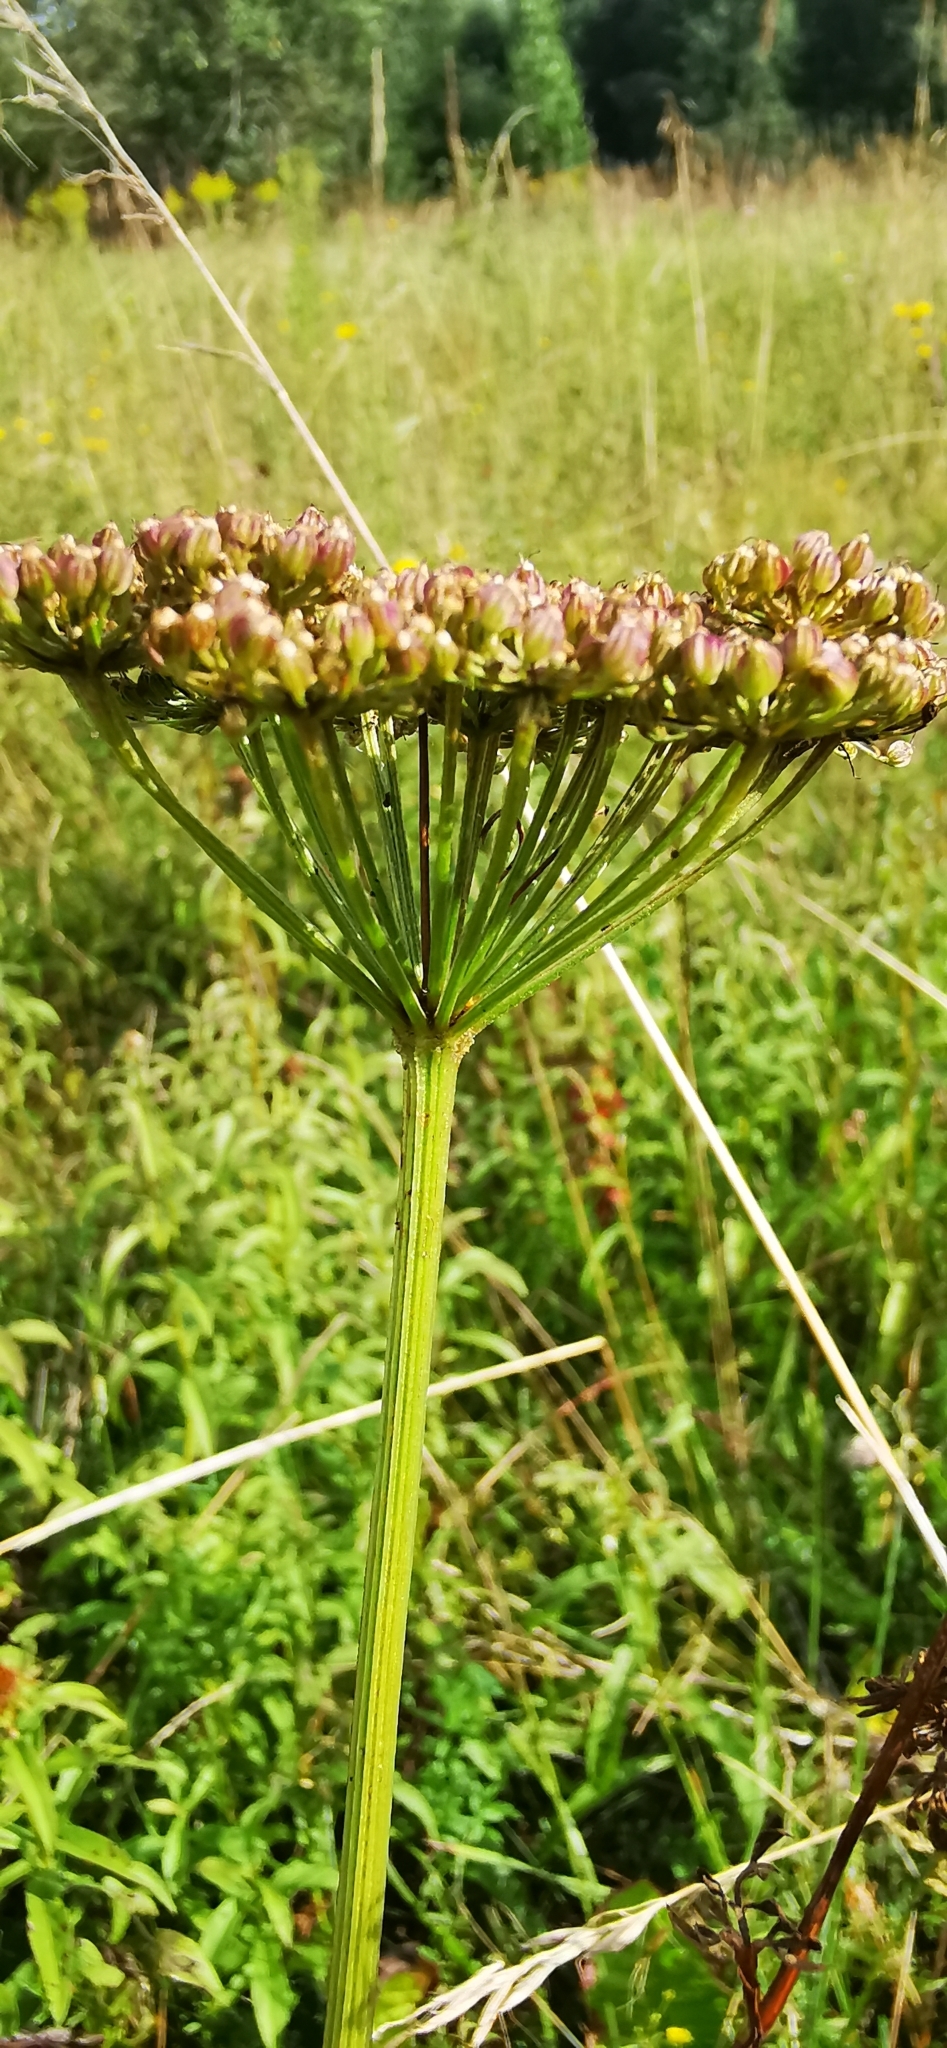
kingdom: Plantae
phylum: Tracheophyta
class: Magnoliopsida
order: Apiales
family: Apiaceae
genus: Selinum
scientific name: Selinum carvifolia
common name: Cambridge milk-parsley
